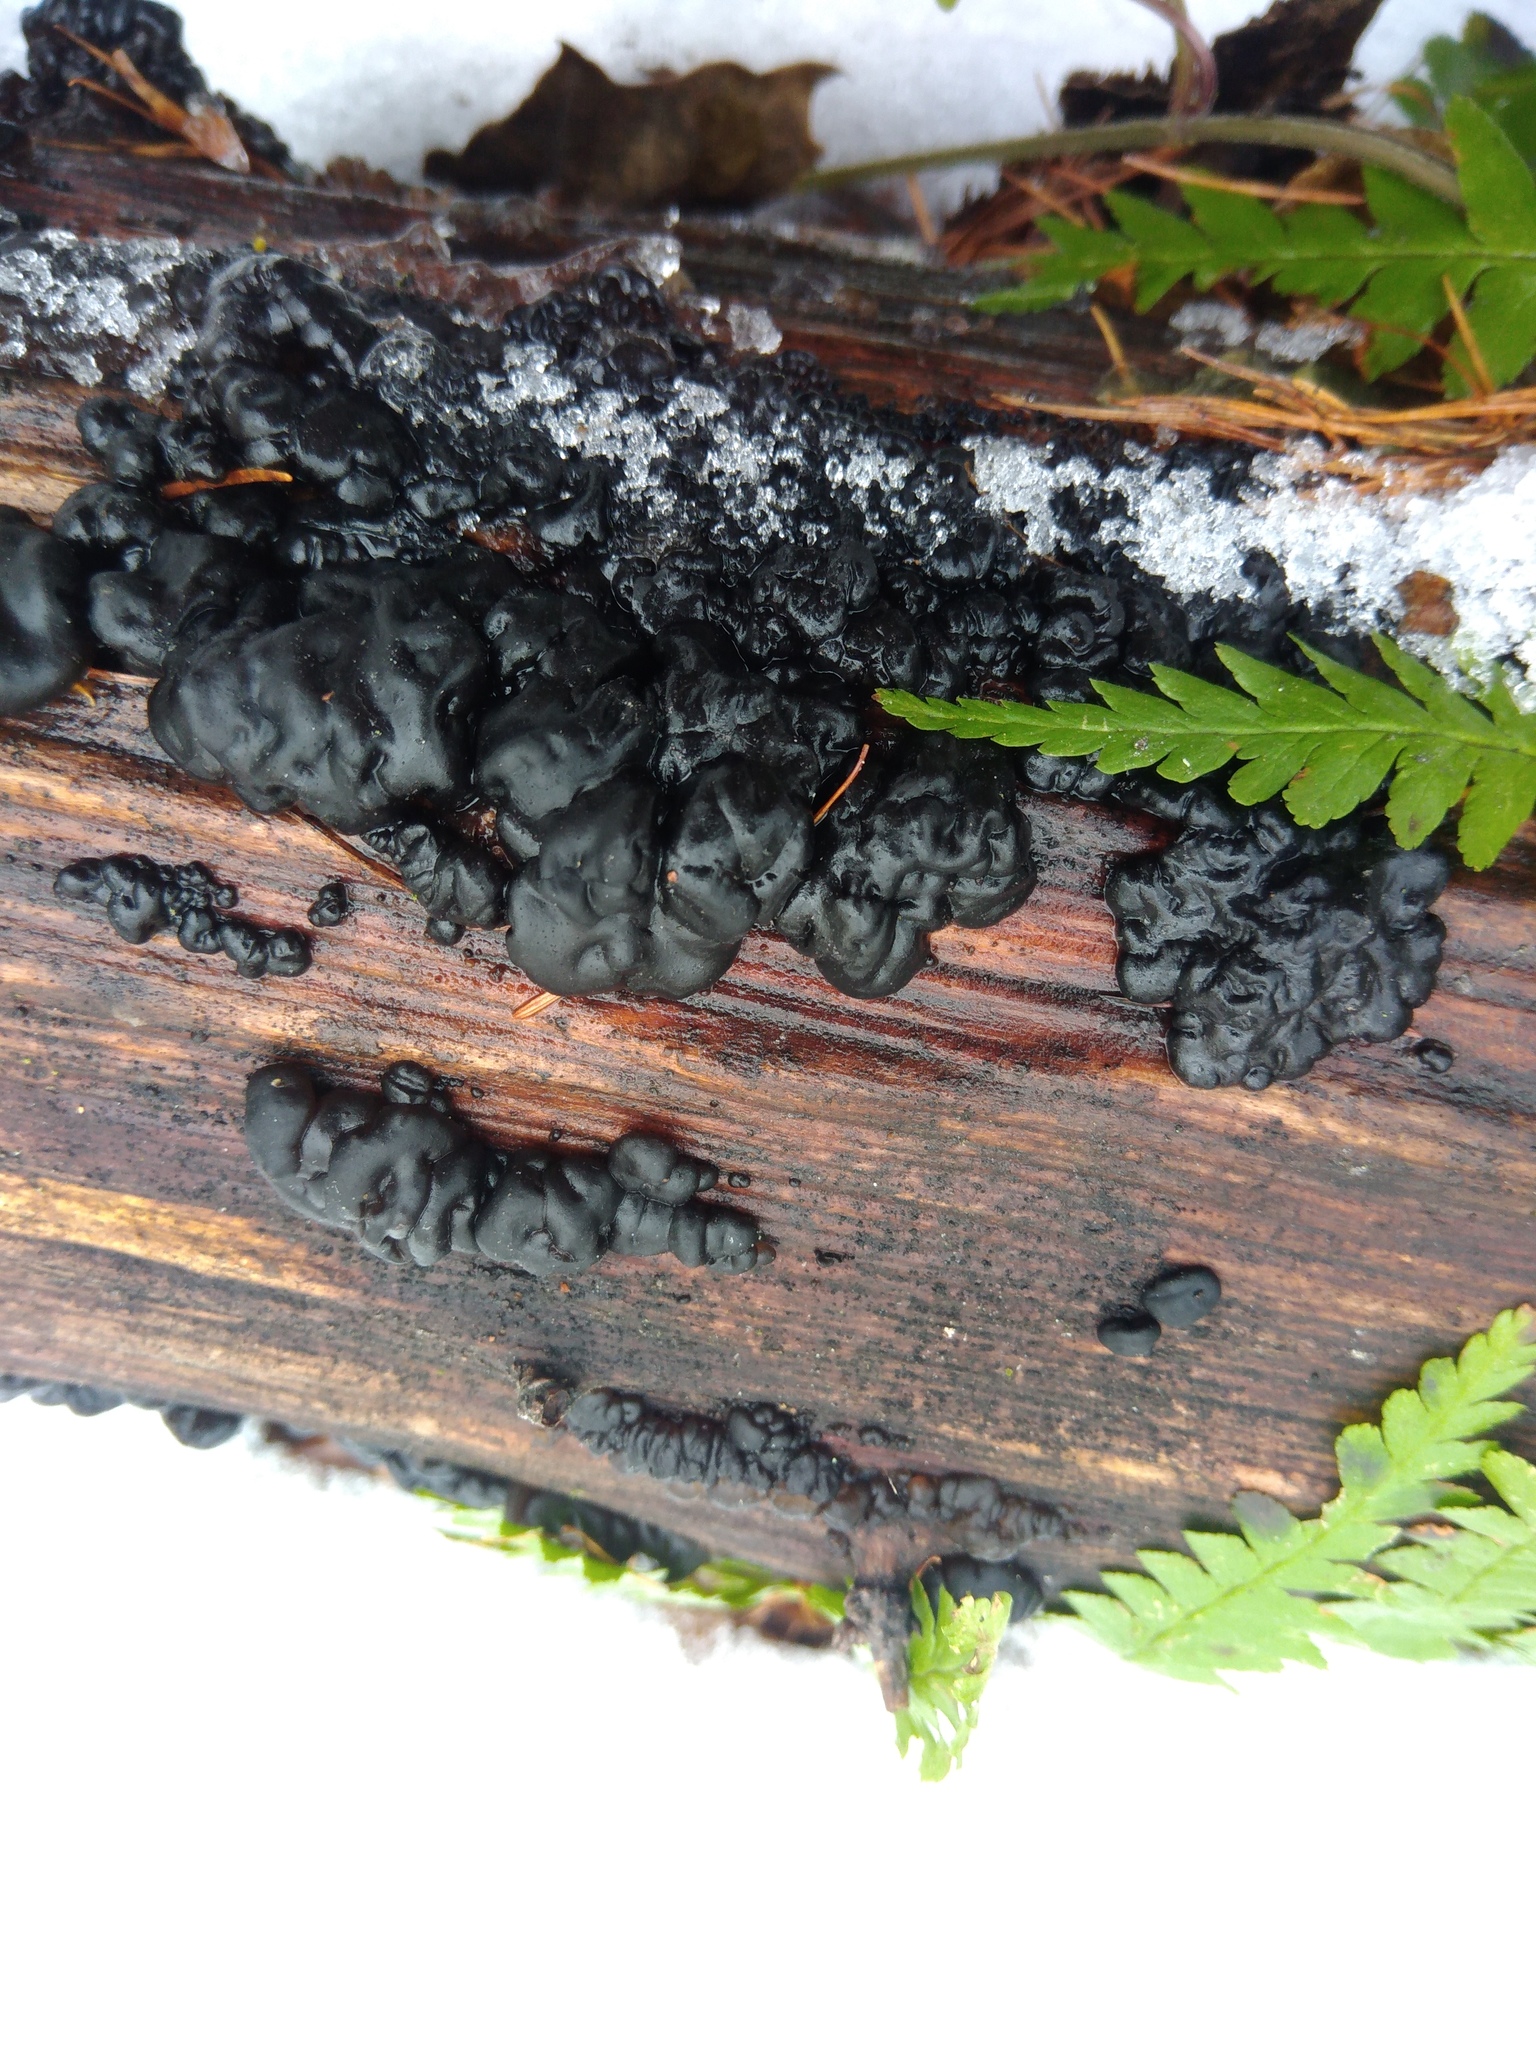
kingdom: Fungi
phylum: Basidiomycota
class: Agaricomycetes
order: Auriculariales
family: Auriculariaceae
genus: Exidia
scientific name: Exidia glandulosa
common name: Witches' butter
